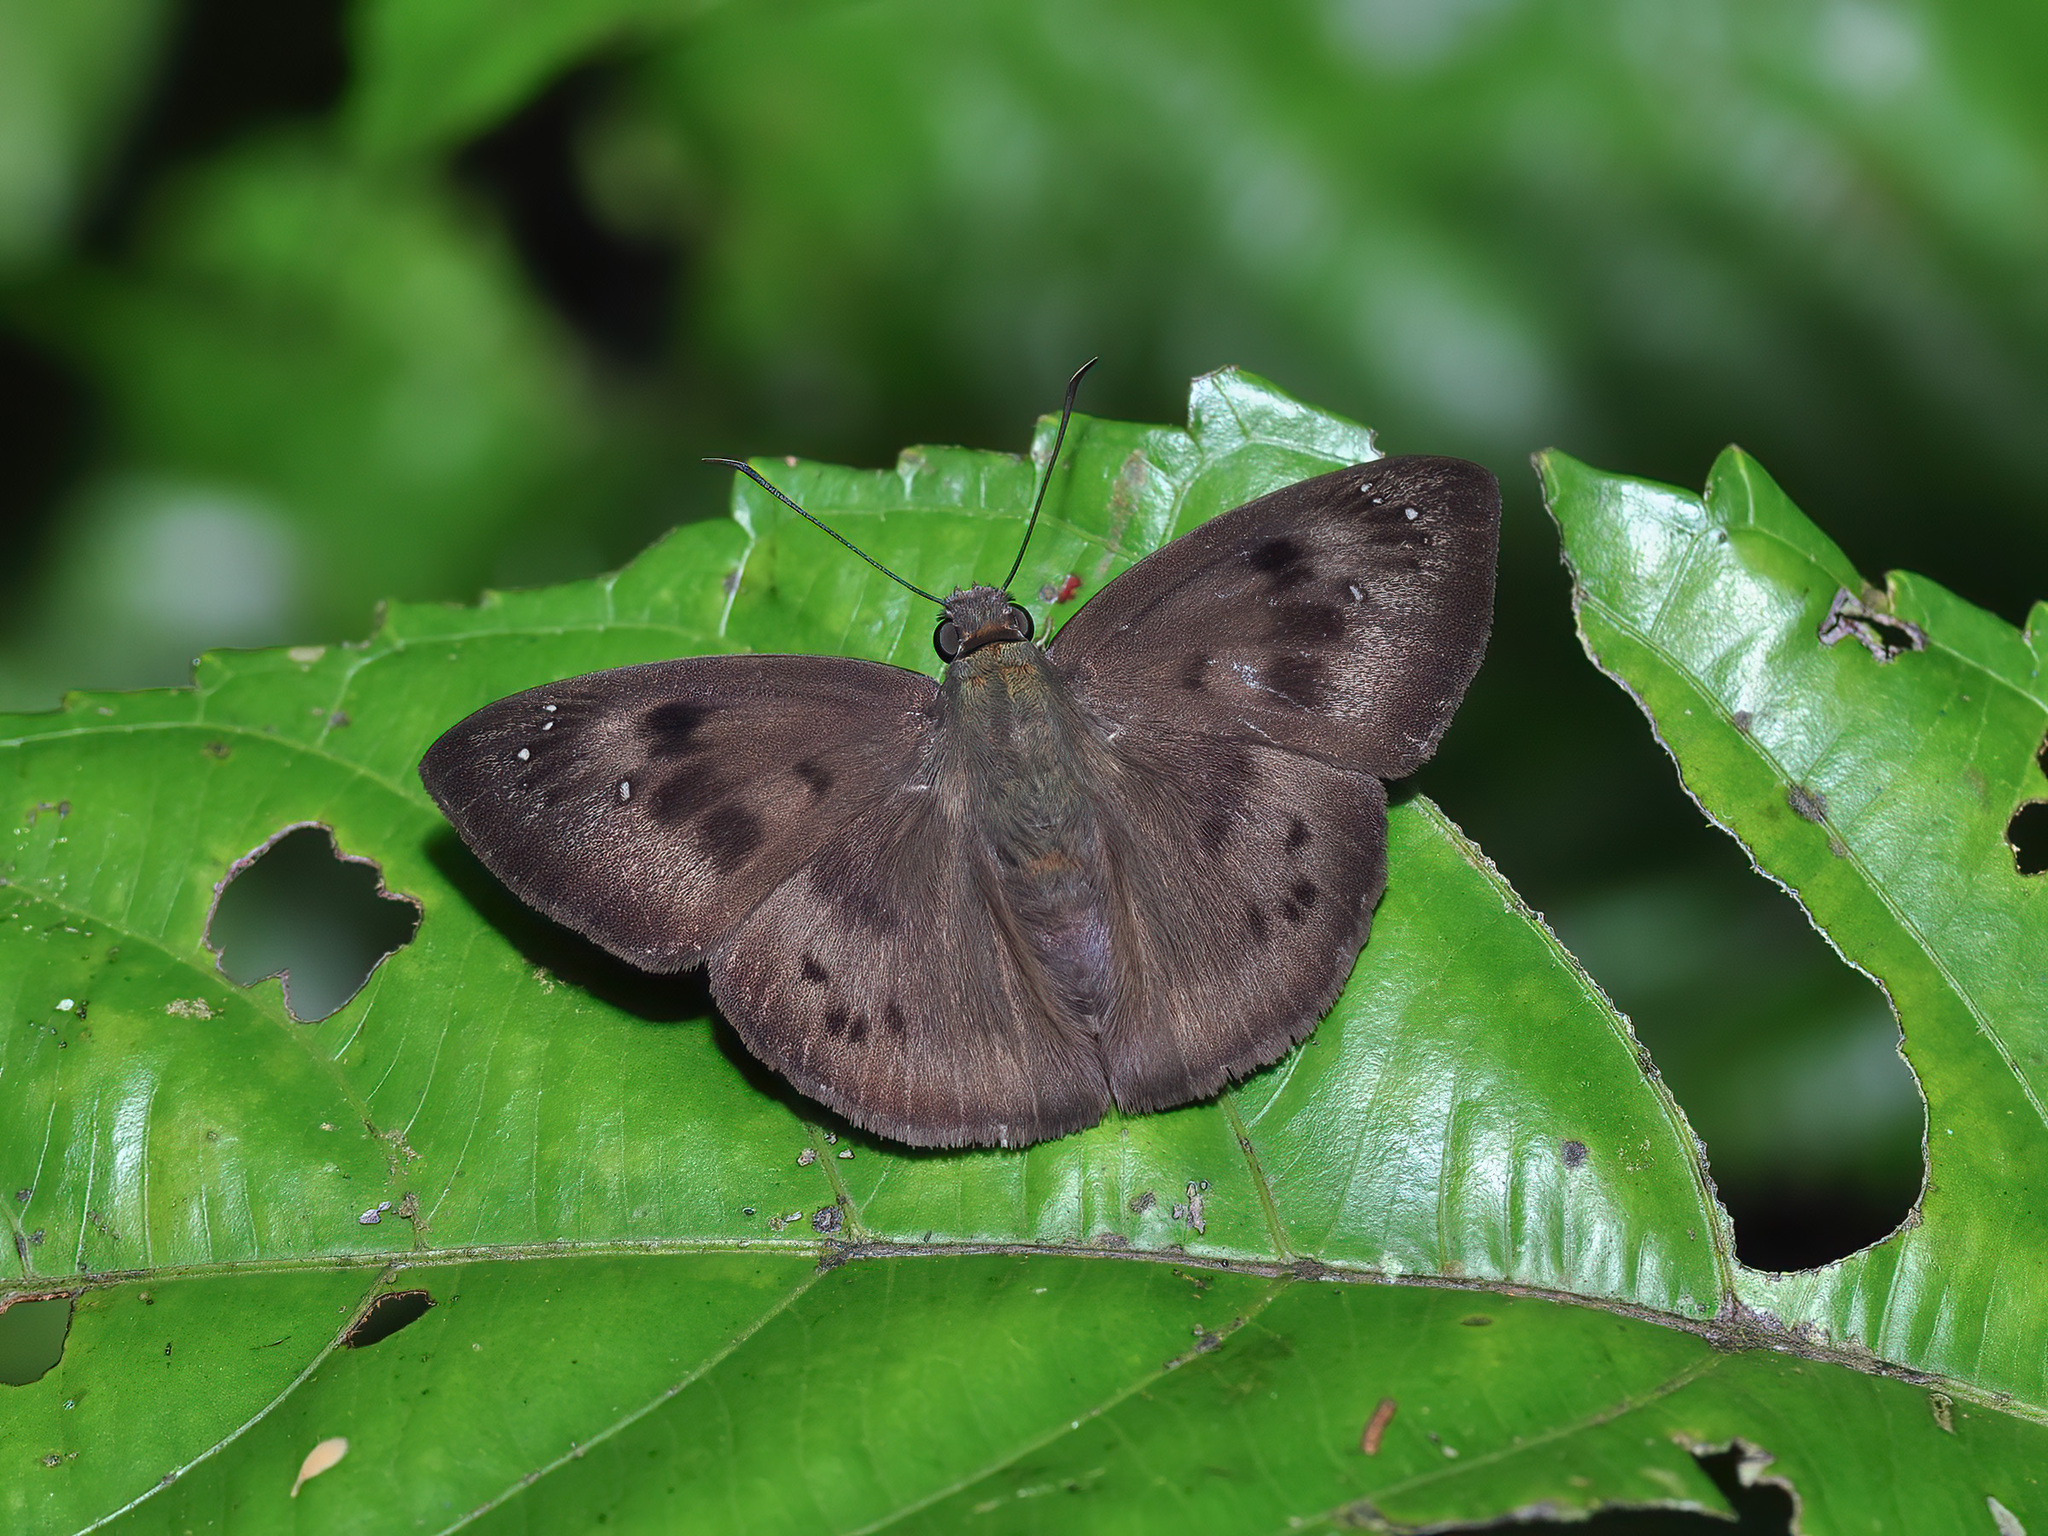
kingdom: Animalia
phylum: Arthropoda
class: Insecta
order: Lepidoptera
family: Hesperiidae
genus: Tagiades
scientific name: Tagiades japetus
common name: Pied flat
